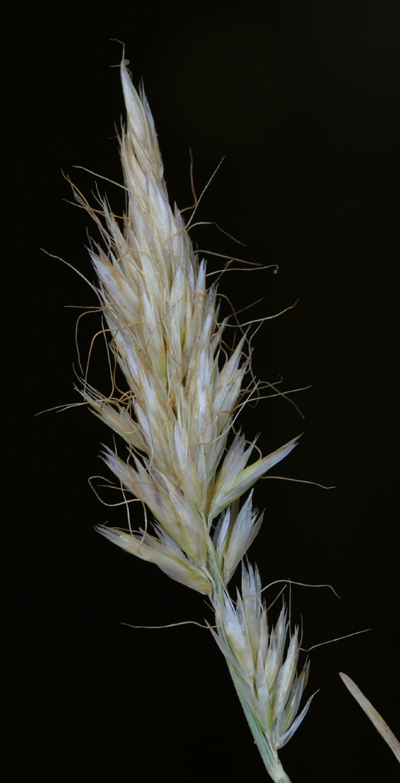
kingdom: Plantae
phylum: Tracheophyta
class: Liliopsida
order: Poales
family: Poaceae
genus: Koeleria
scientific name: Koeleria spicata
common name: Mountain trisetum
